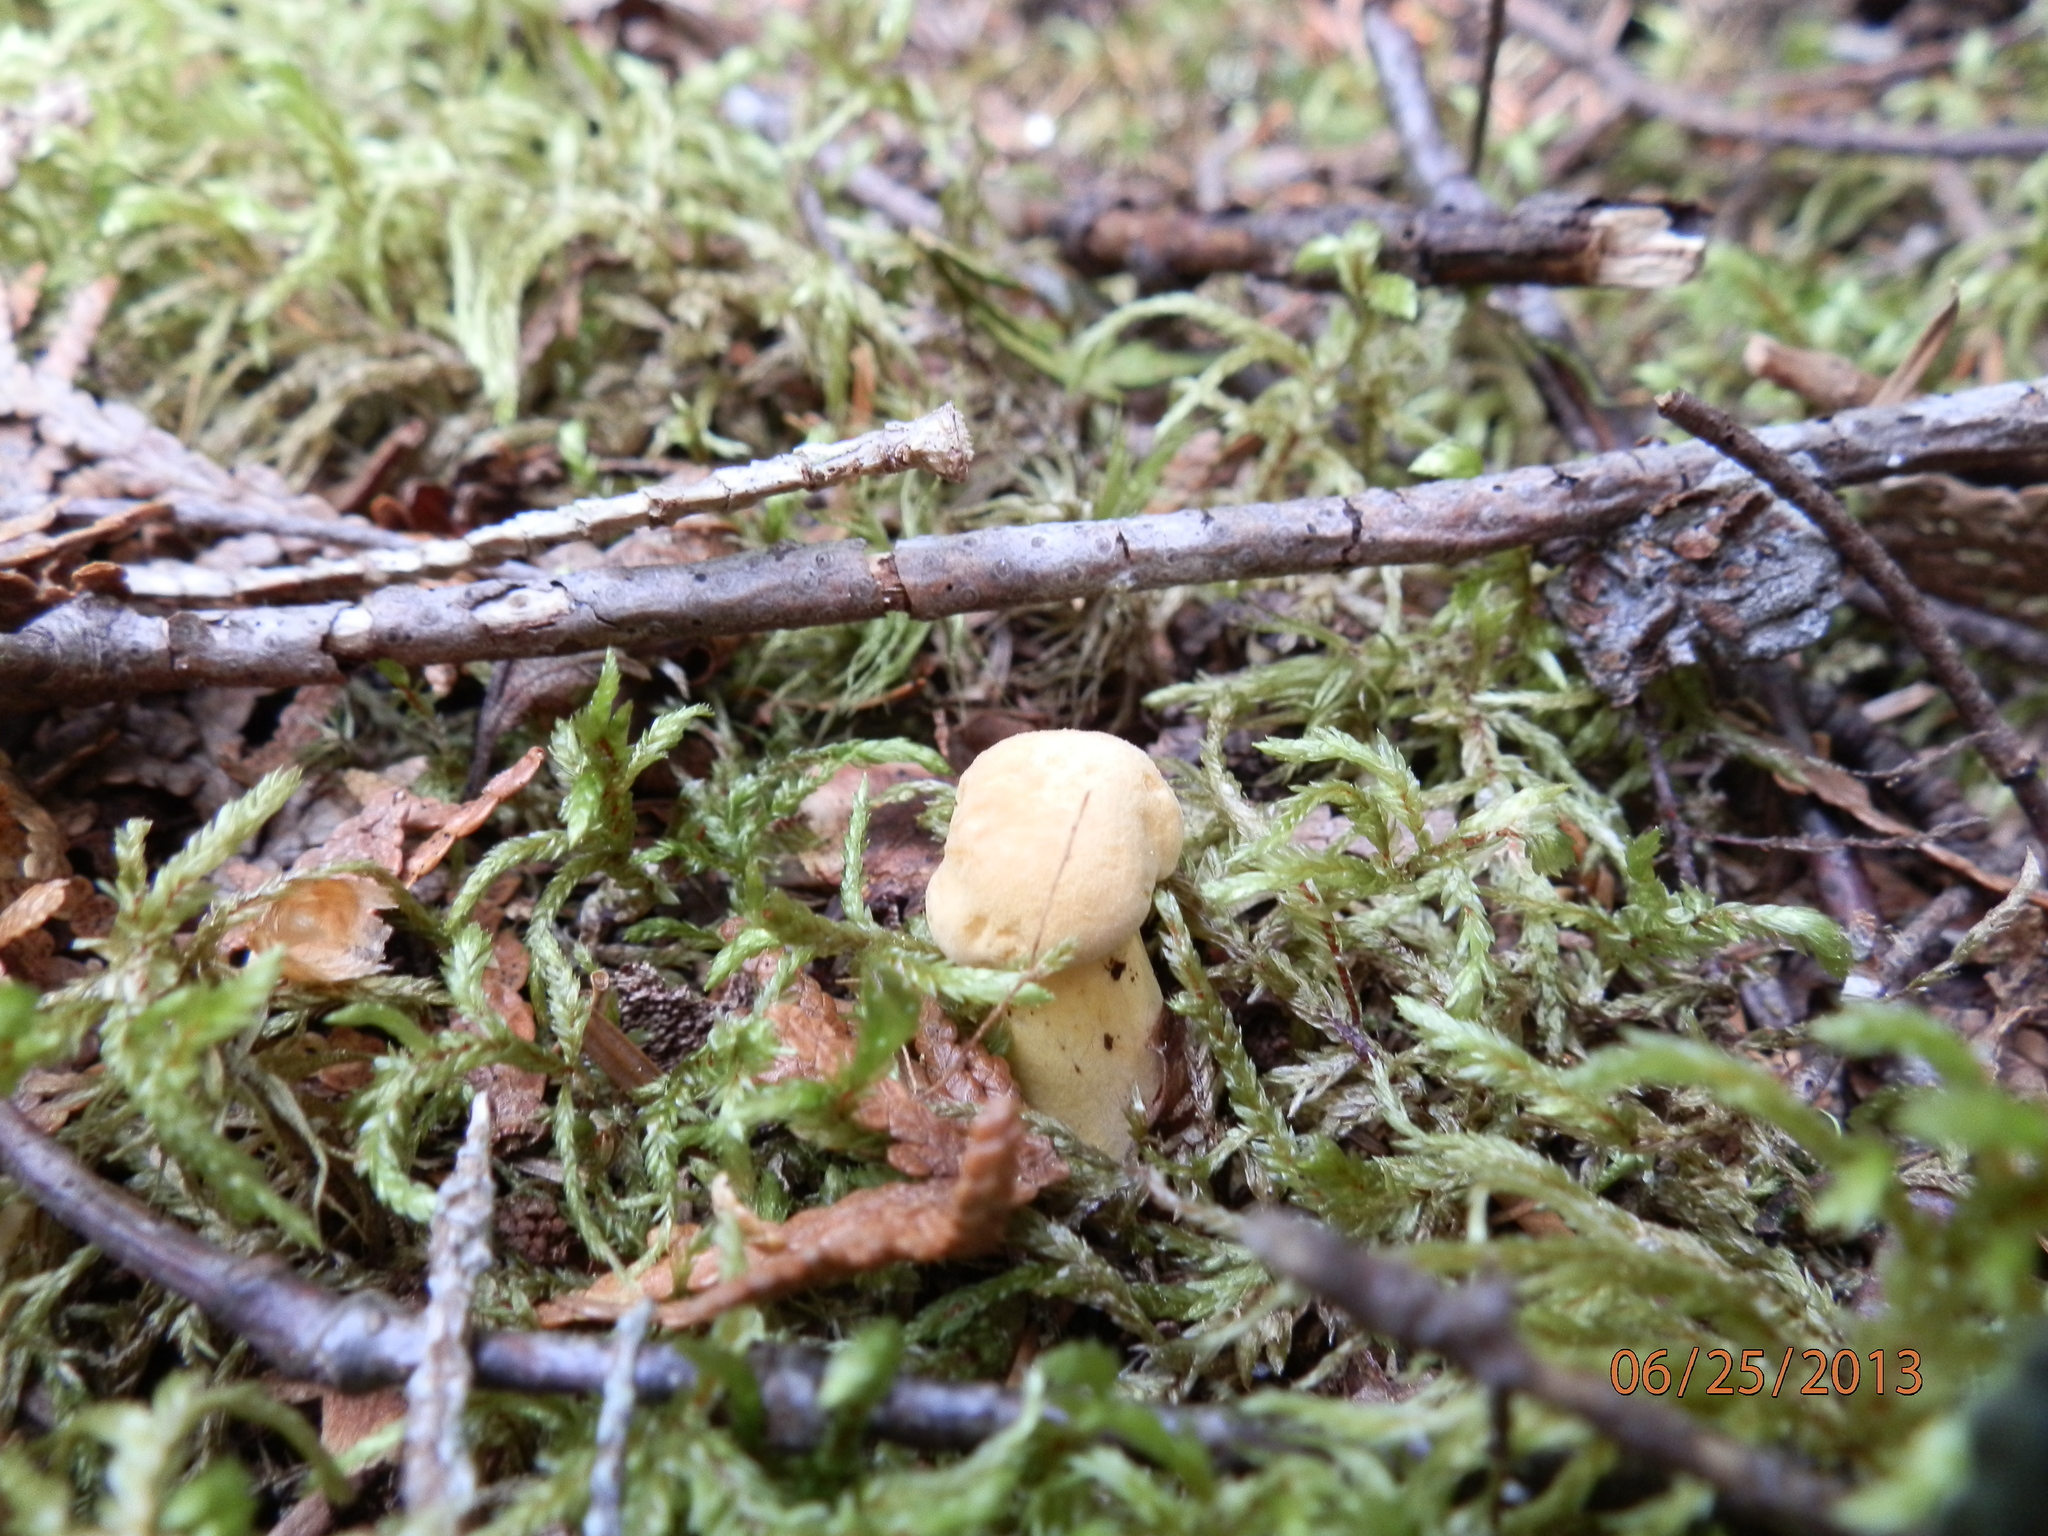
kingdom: Fungi
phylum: Basidiomycota
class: Agaricomycetes
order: Cantharellales
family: Hydnaceae
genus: Cantharellus
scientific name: Cantharellus enelensis
